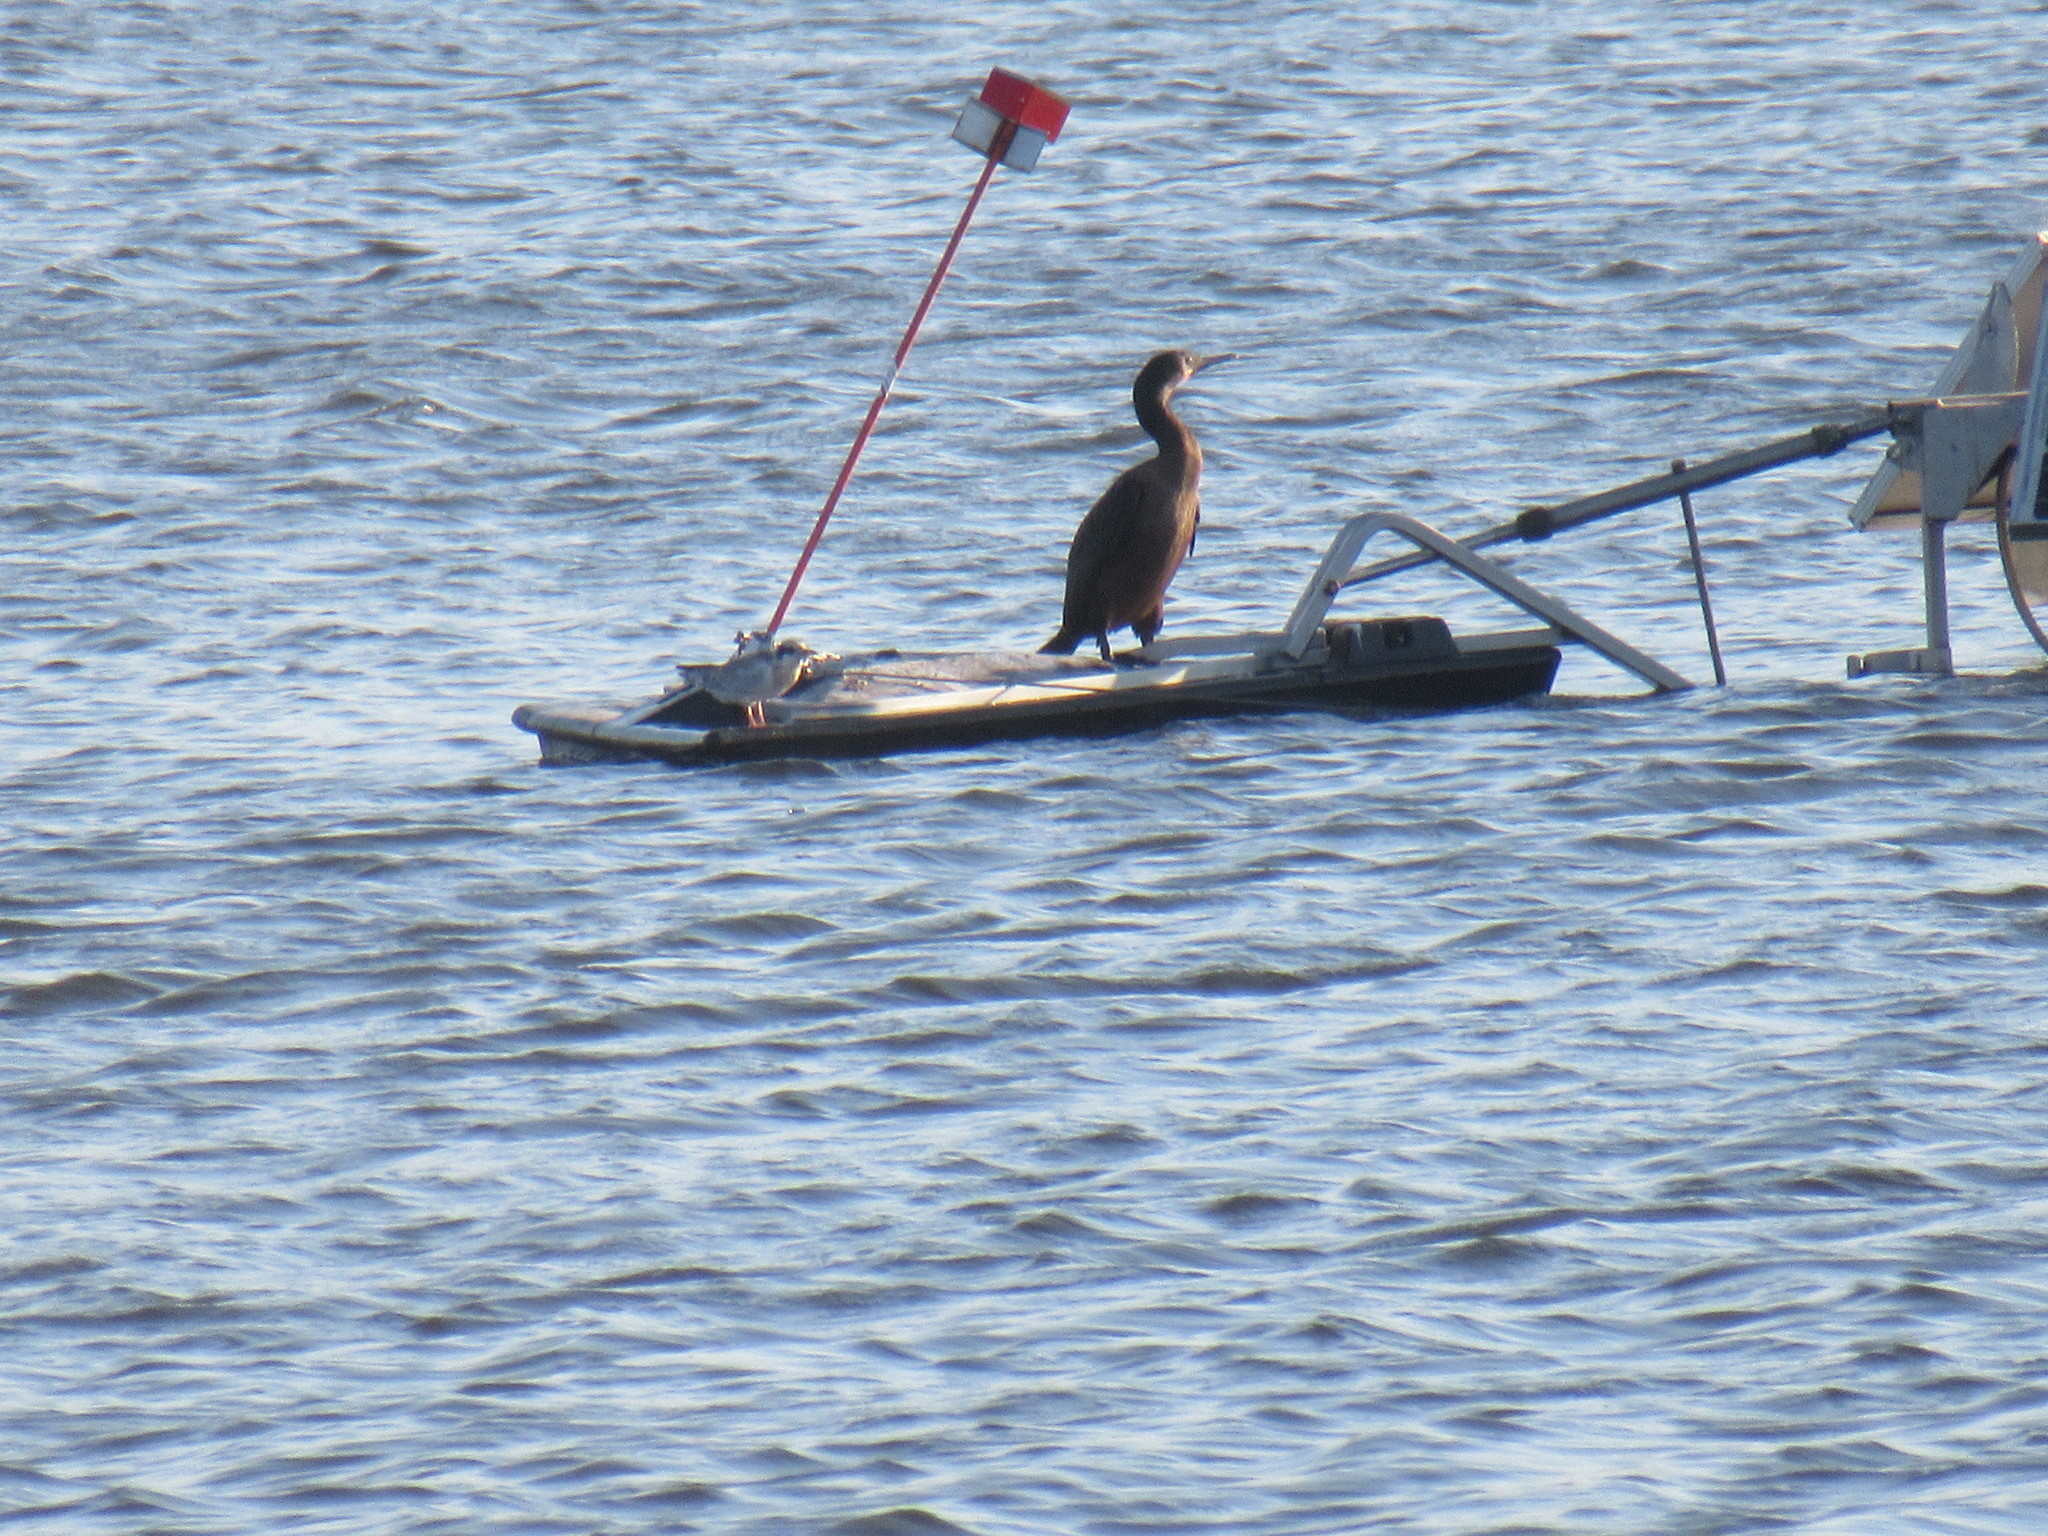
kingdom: Animalia
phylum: Chordata
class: Aves
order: Suliformes
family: Phalacrocoracidae
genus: Urile
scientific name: Urile penicillatus
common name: Brandt's cormorant
